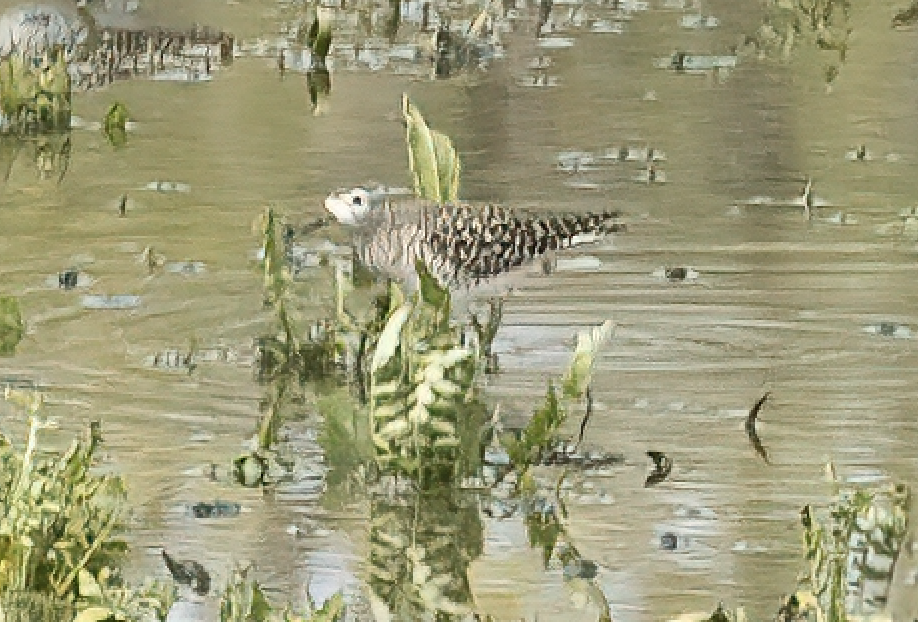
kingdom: Animalia
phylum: Chordata
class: Aves
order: Charadriiformes
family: Scolopacidae
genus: Tringa
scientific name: Tringa glareola
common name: Wood sandpiper
